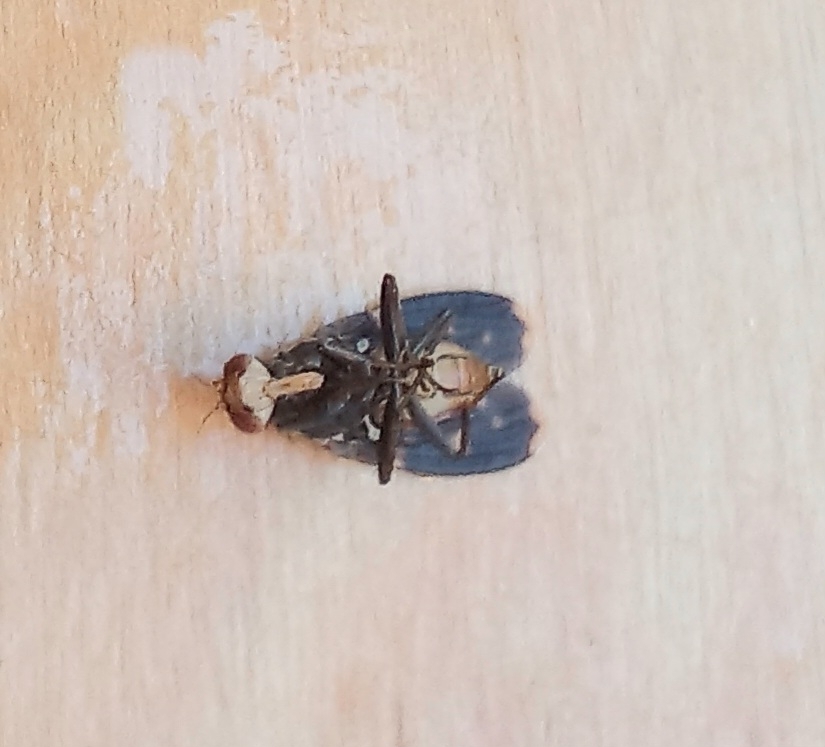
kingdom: Animalia
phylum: Arthropoda
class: Insecta
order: Diptera
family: Heleomyzidae
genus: Suillia
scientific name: Suillia picta
